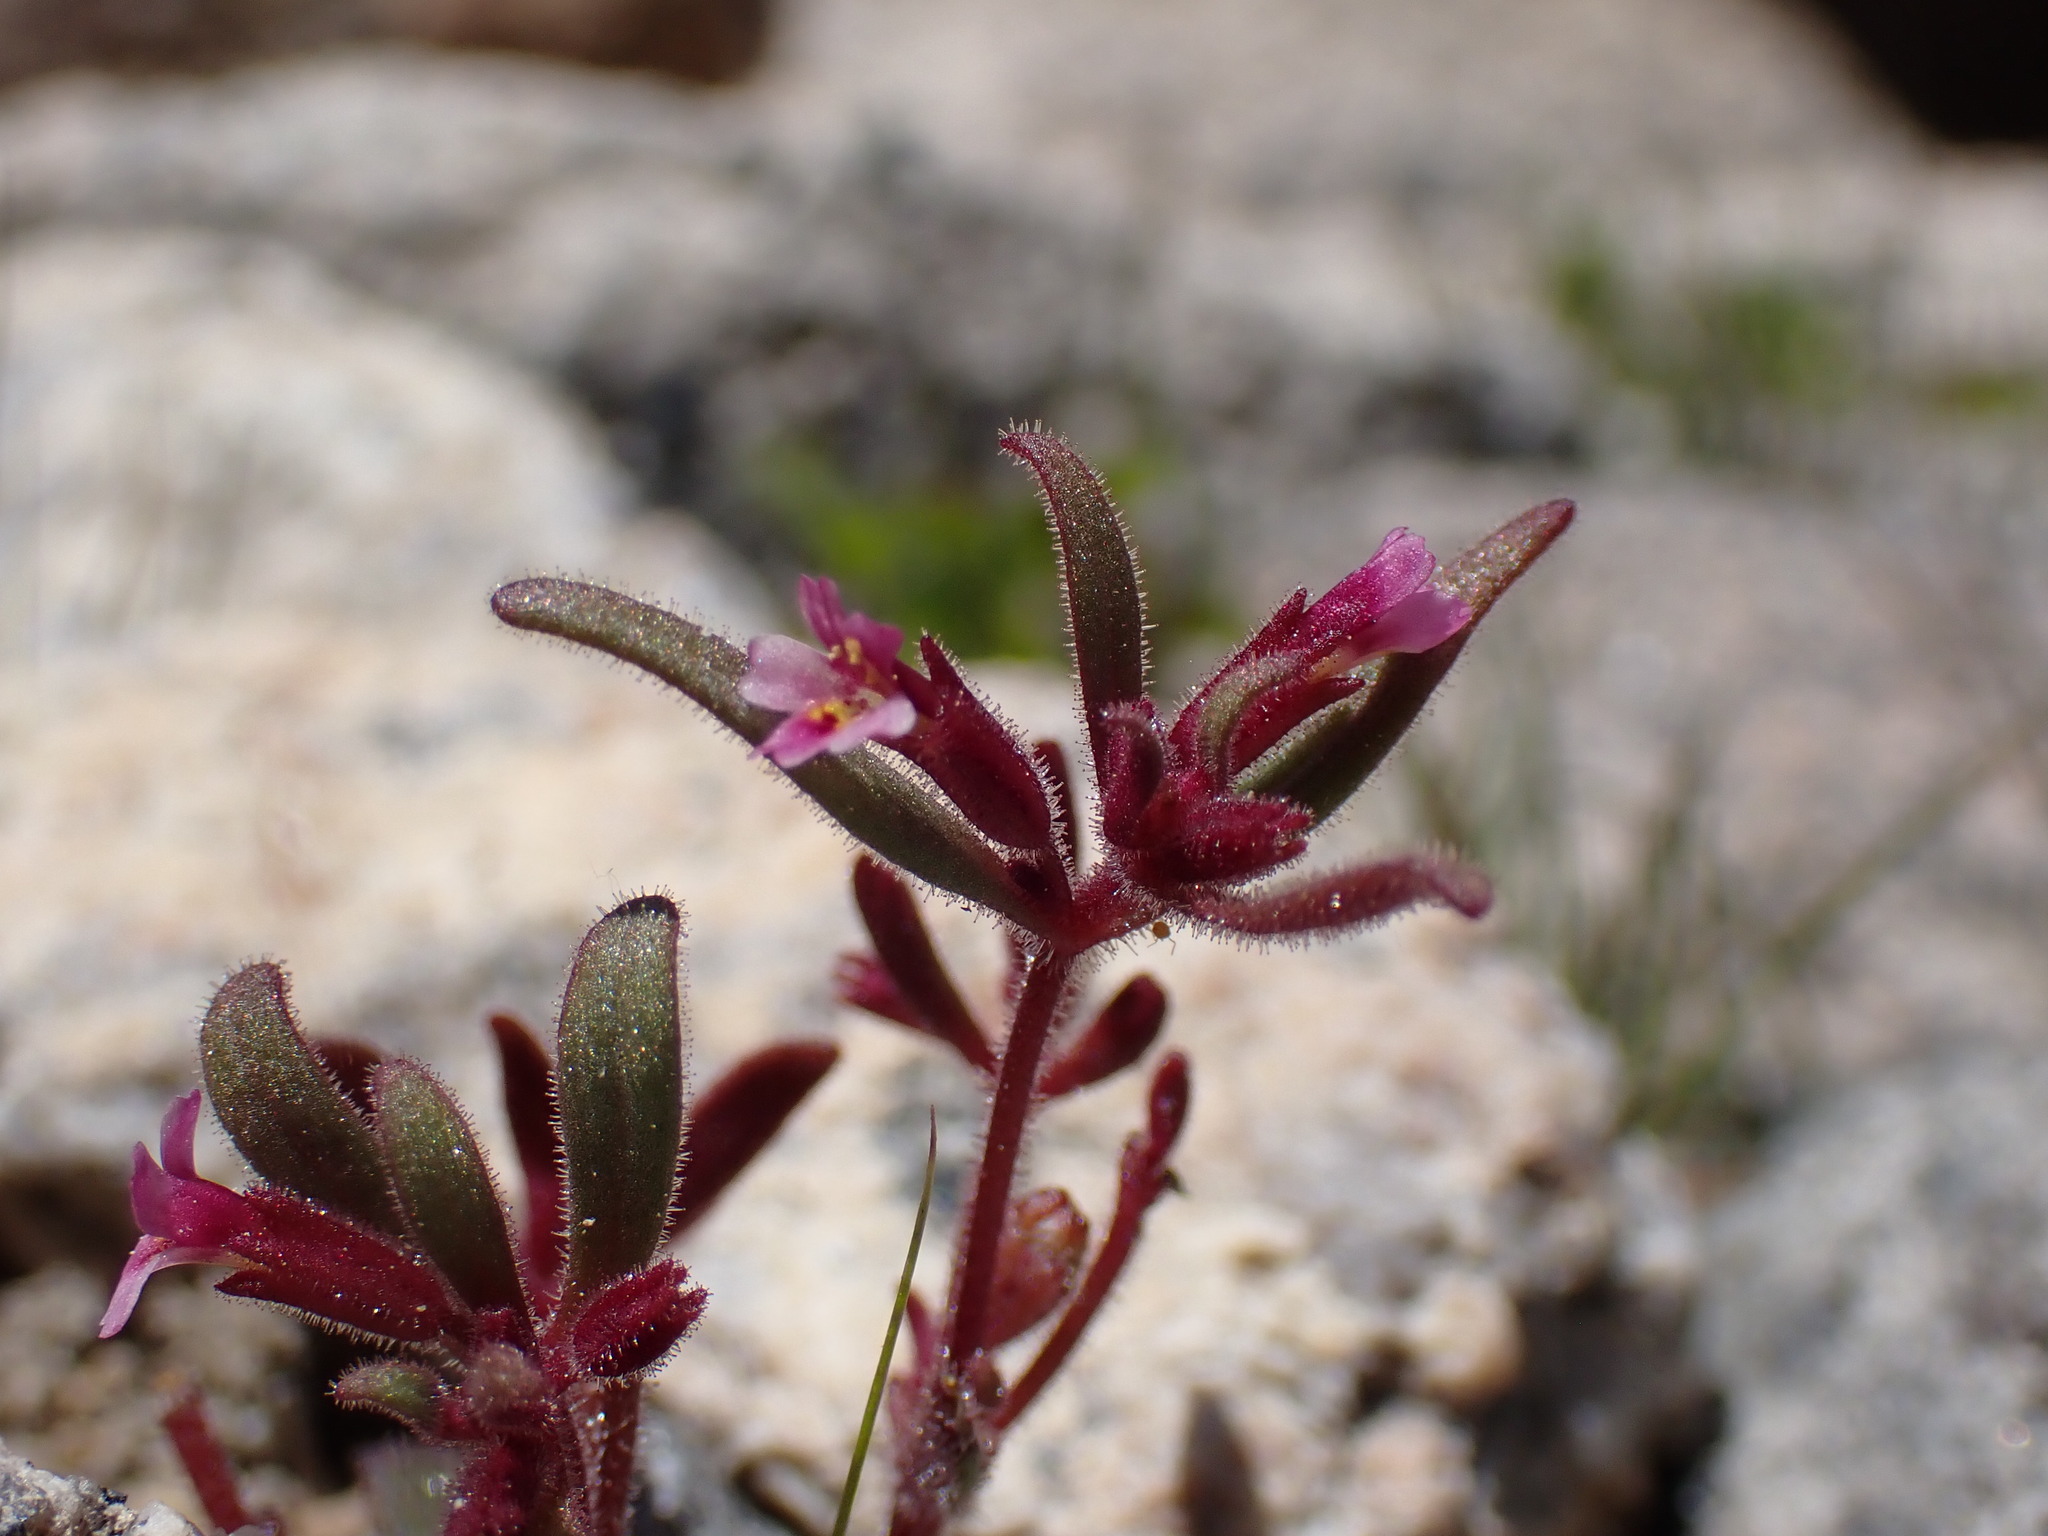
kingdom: Plantae
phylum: Tracheophyta
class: Magnoliopsida
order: Lamiales
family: Phrymaceae
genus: Erythranthe
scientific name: Erythranthe breweri
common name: Brewer's monkeyflower
